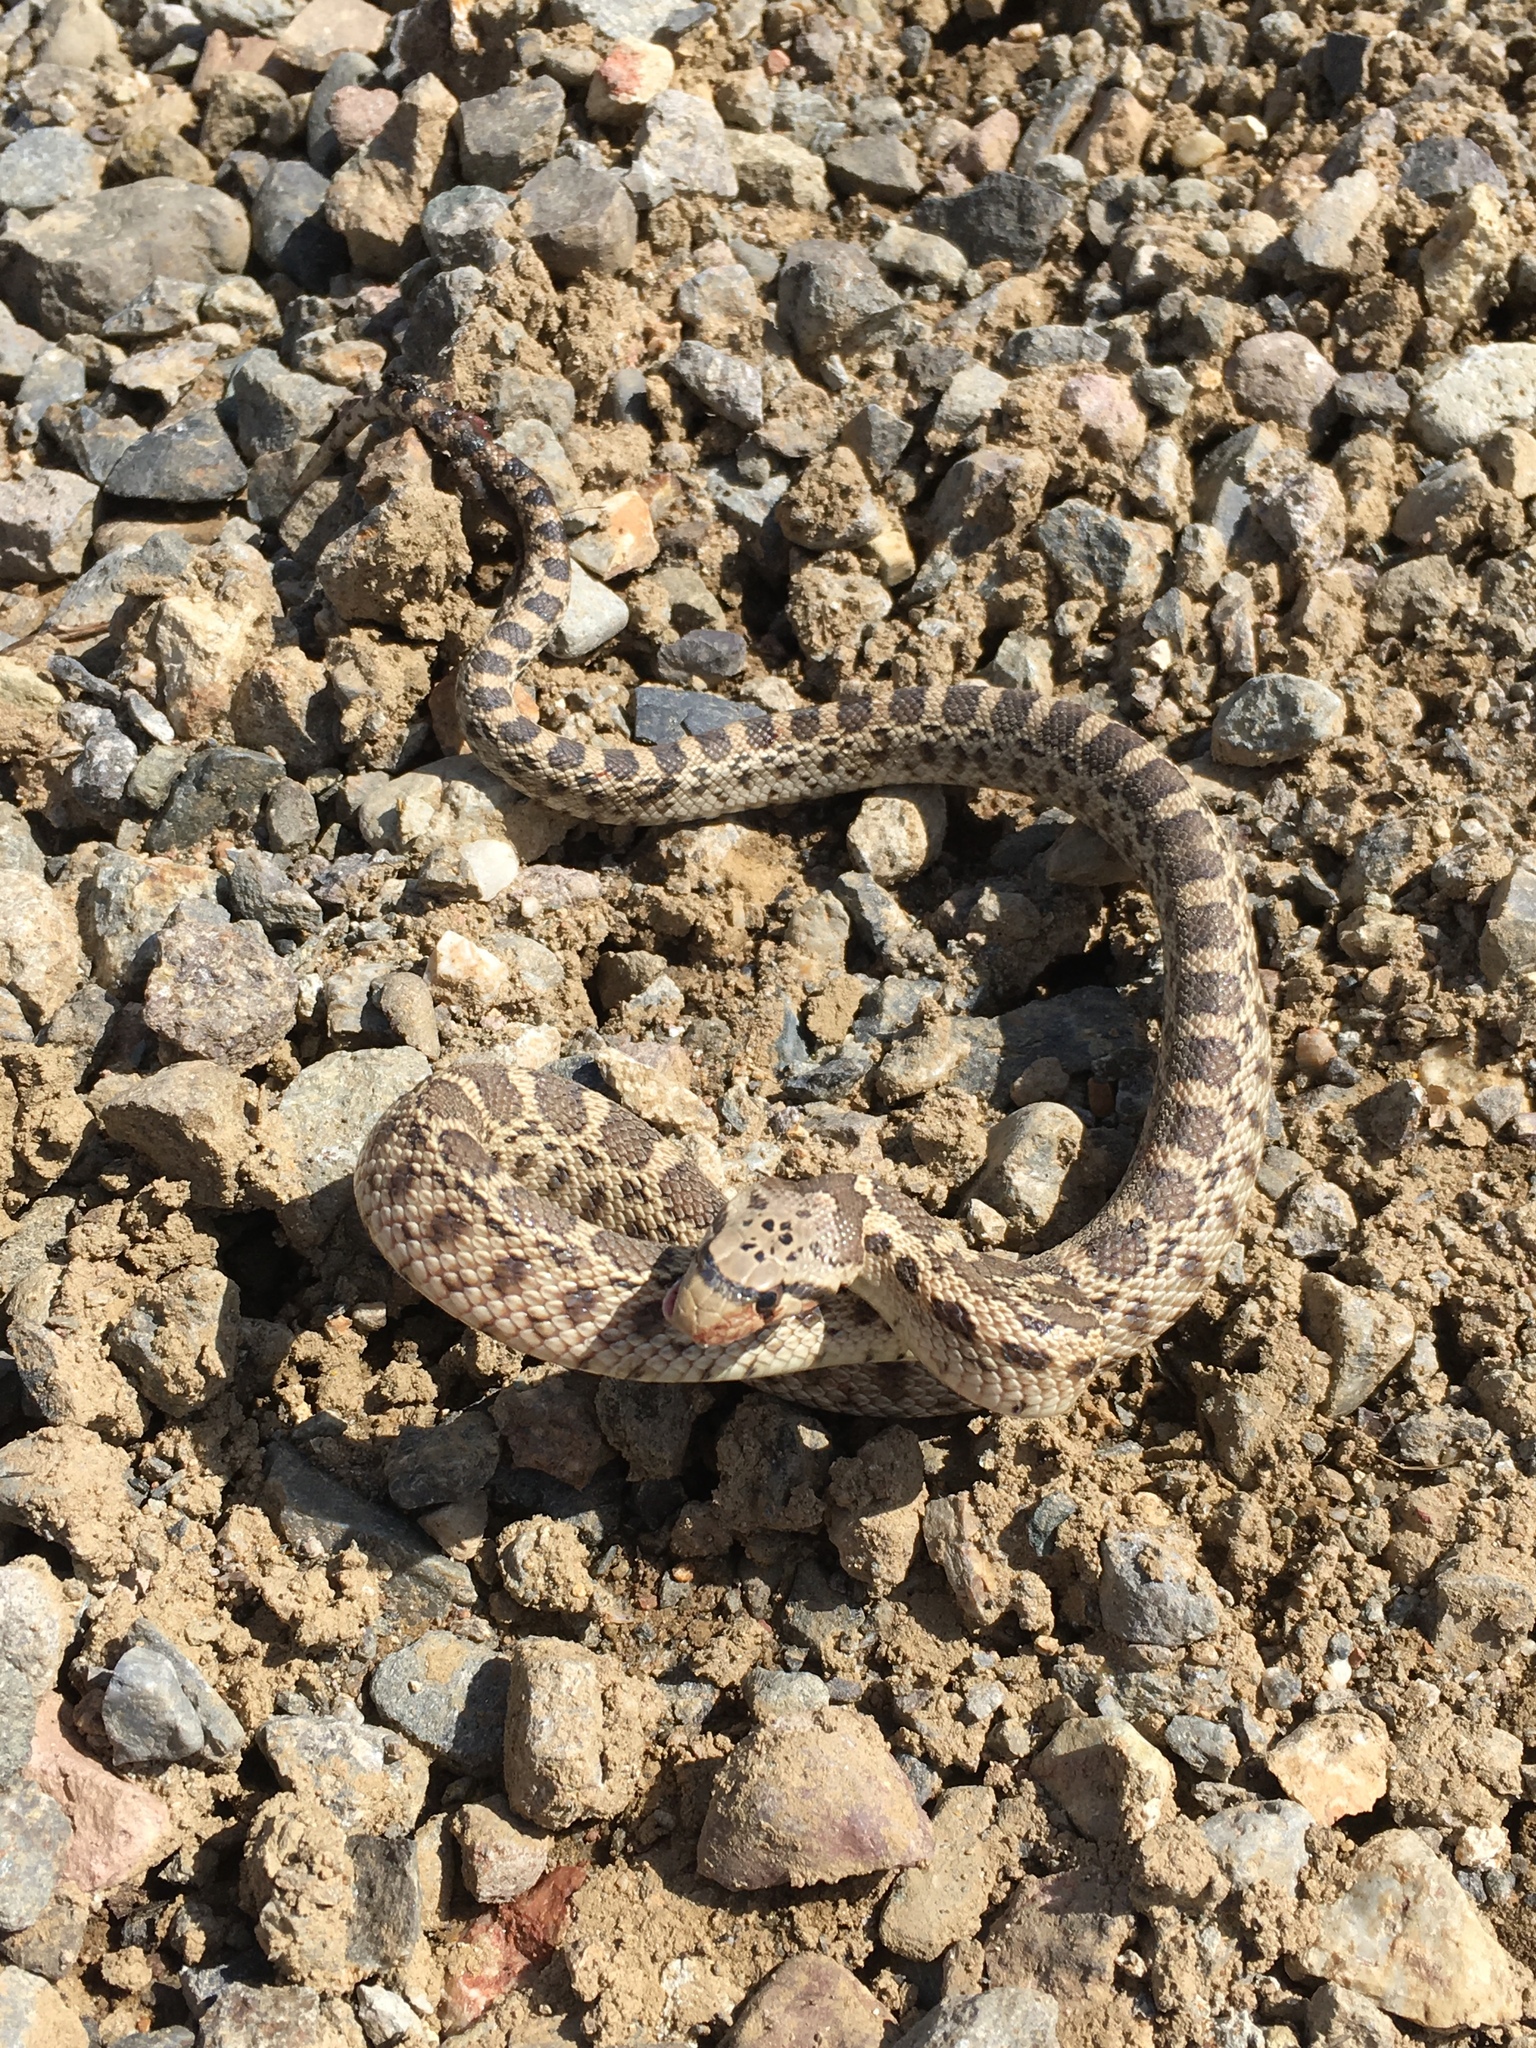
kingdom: Animalia
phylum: Chordata
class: Squamata
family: Colubridae
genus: Pituophis
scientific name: Pituophis catenifer
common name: Gopher snake
